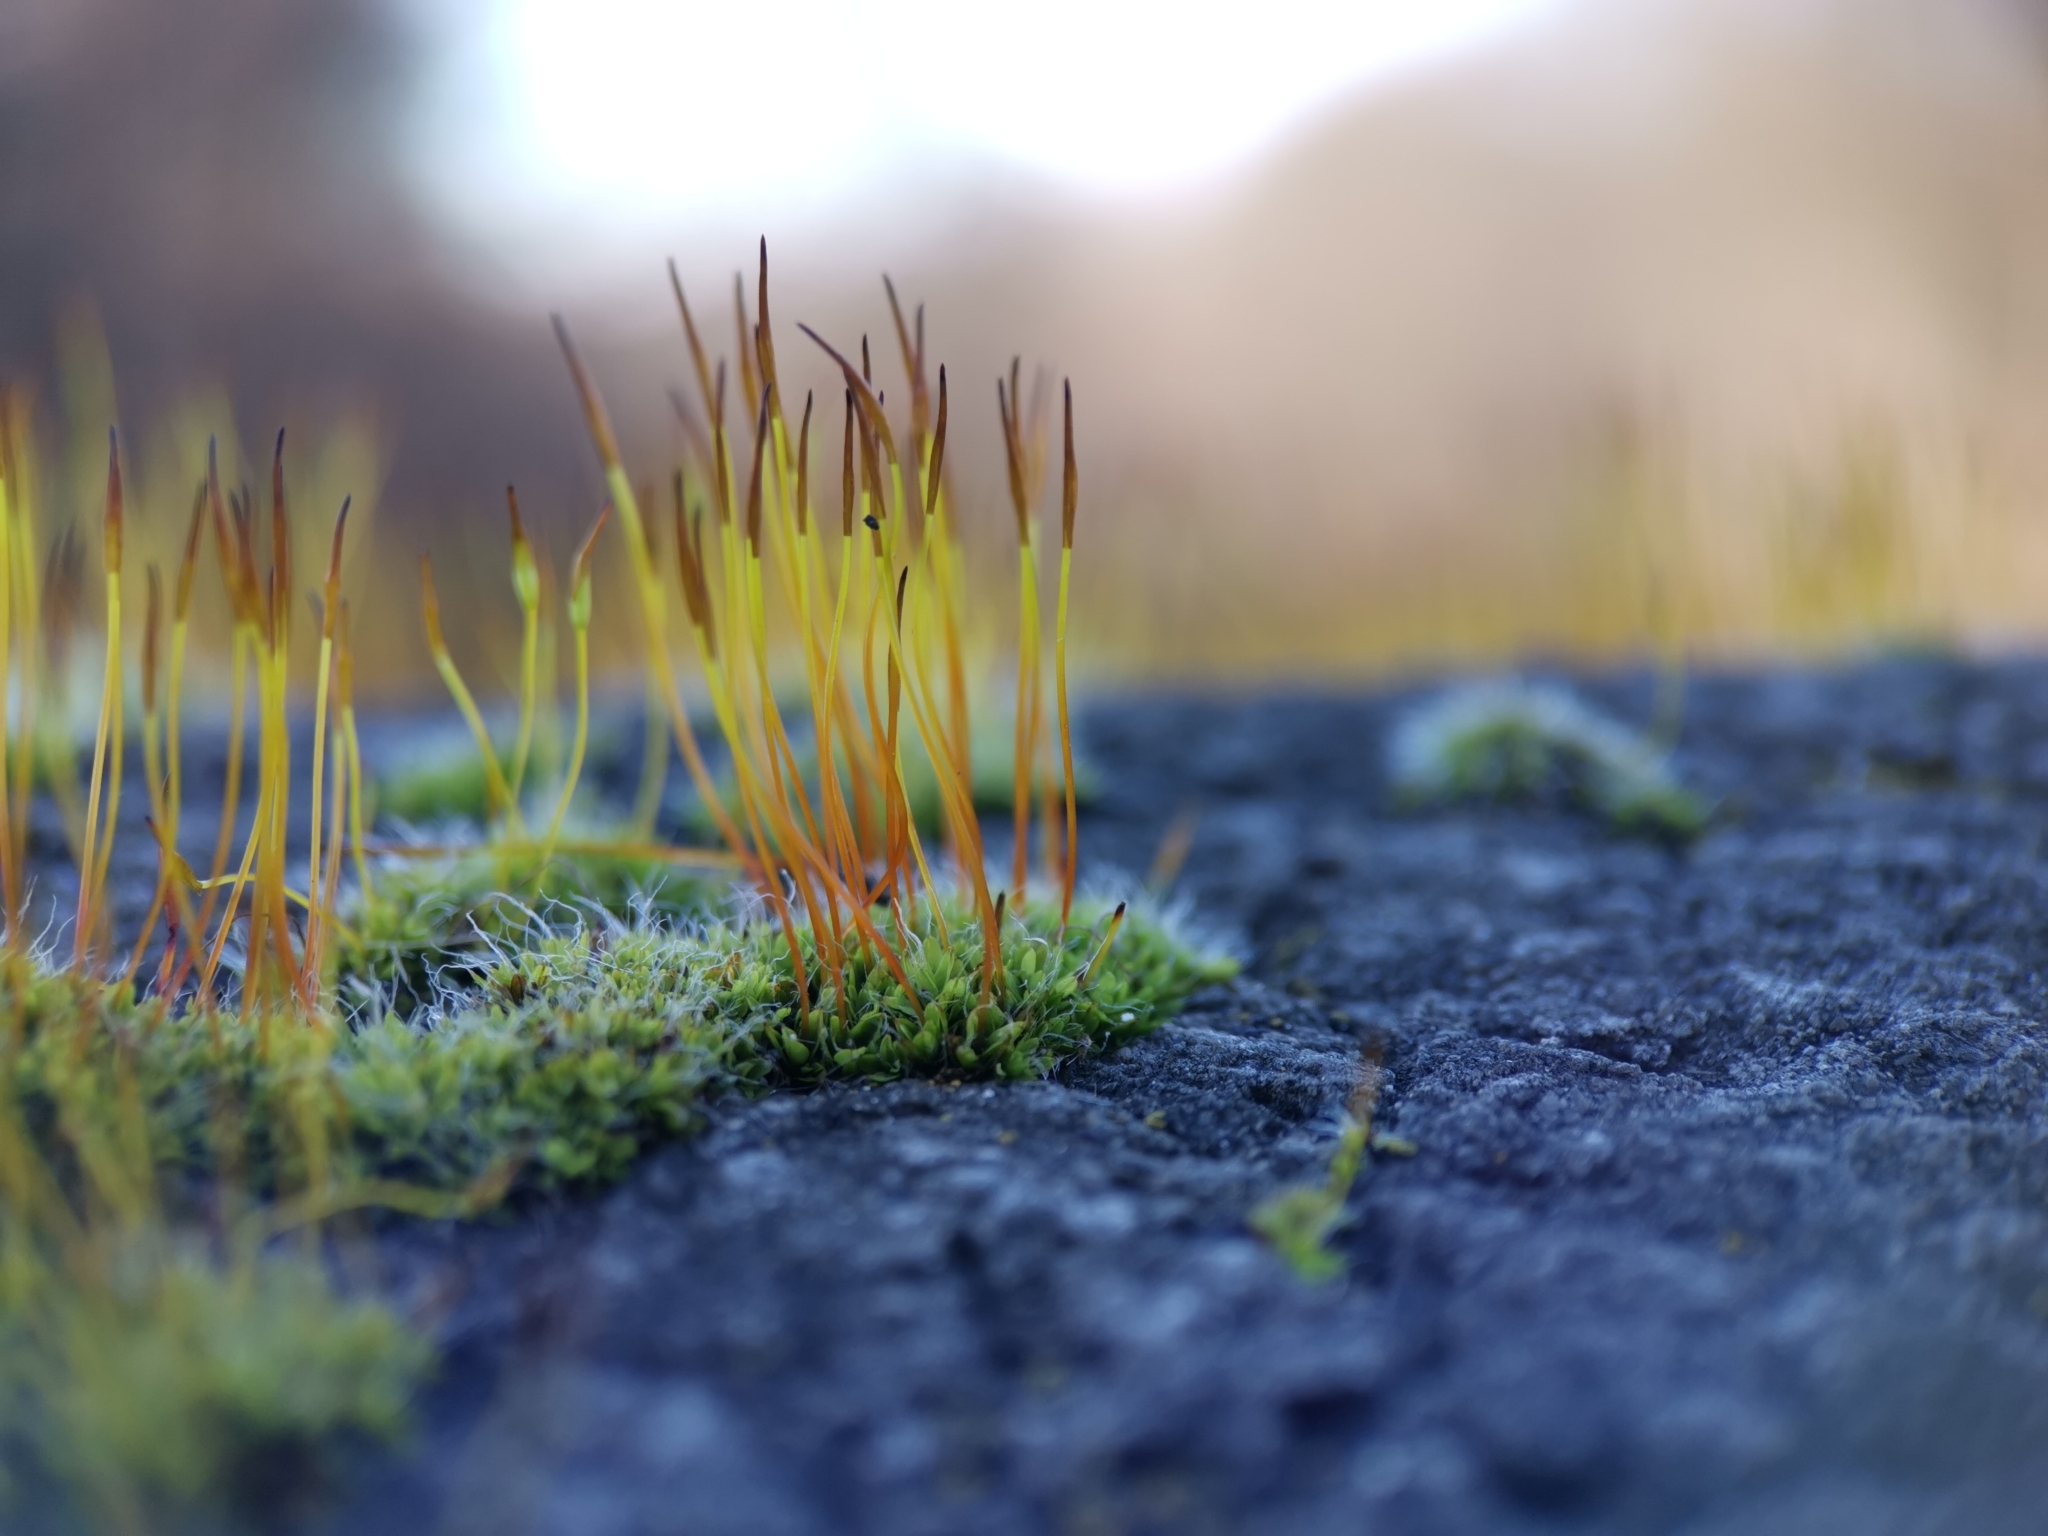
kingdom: Plantae
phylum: Bryophyta
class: Bryopsida
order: Pottiales
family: Pottiaceae
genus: Tortula
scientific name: Tortula muralis
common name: Wall screw-moss
